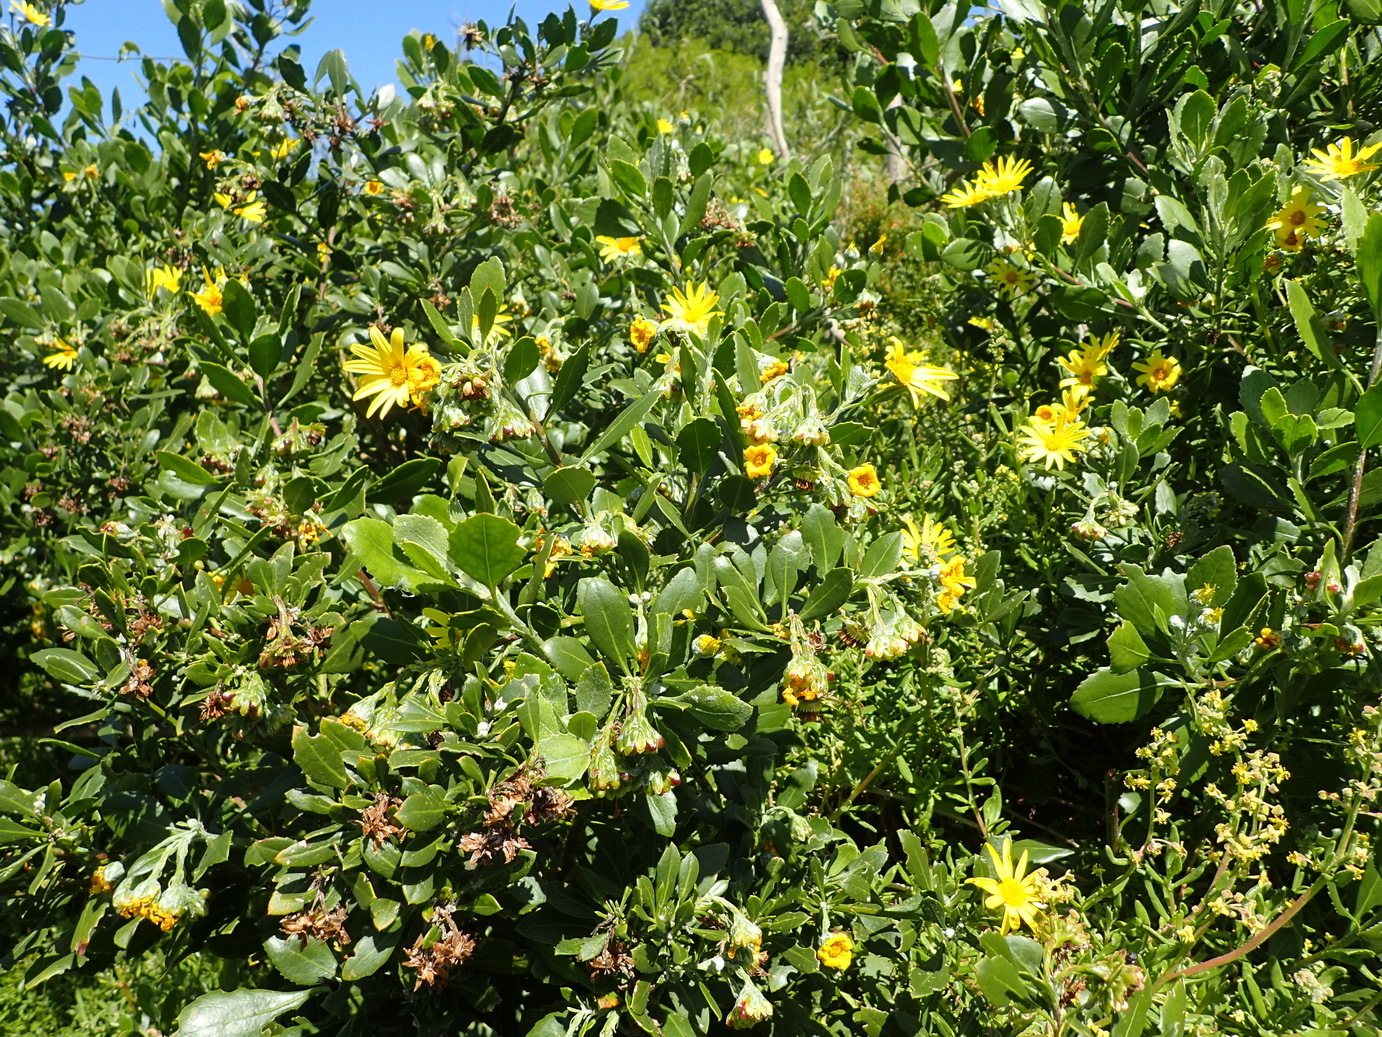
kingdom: Plantae
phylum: Tracheophyta
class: Magnoliopsida
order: Asterales
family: Asteraceae
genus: Osteospermum
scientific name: Osteospermum moniliferum
